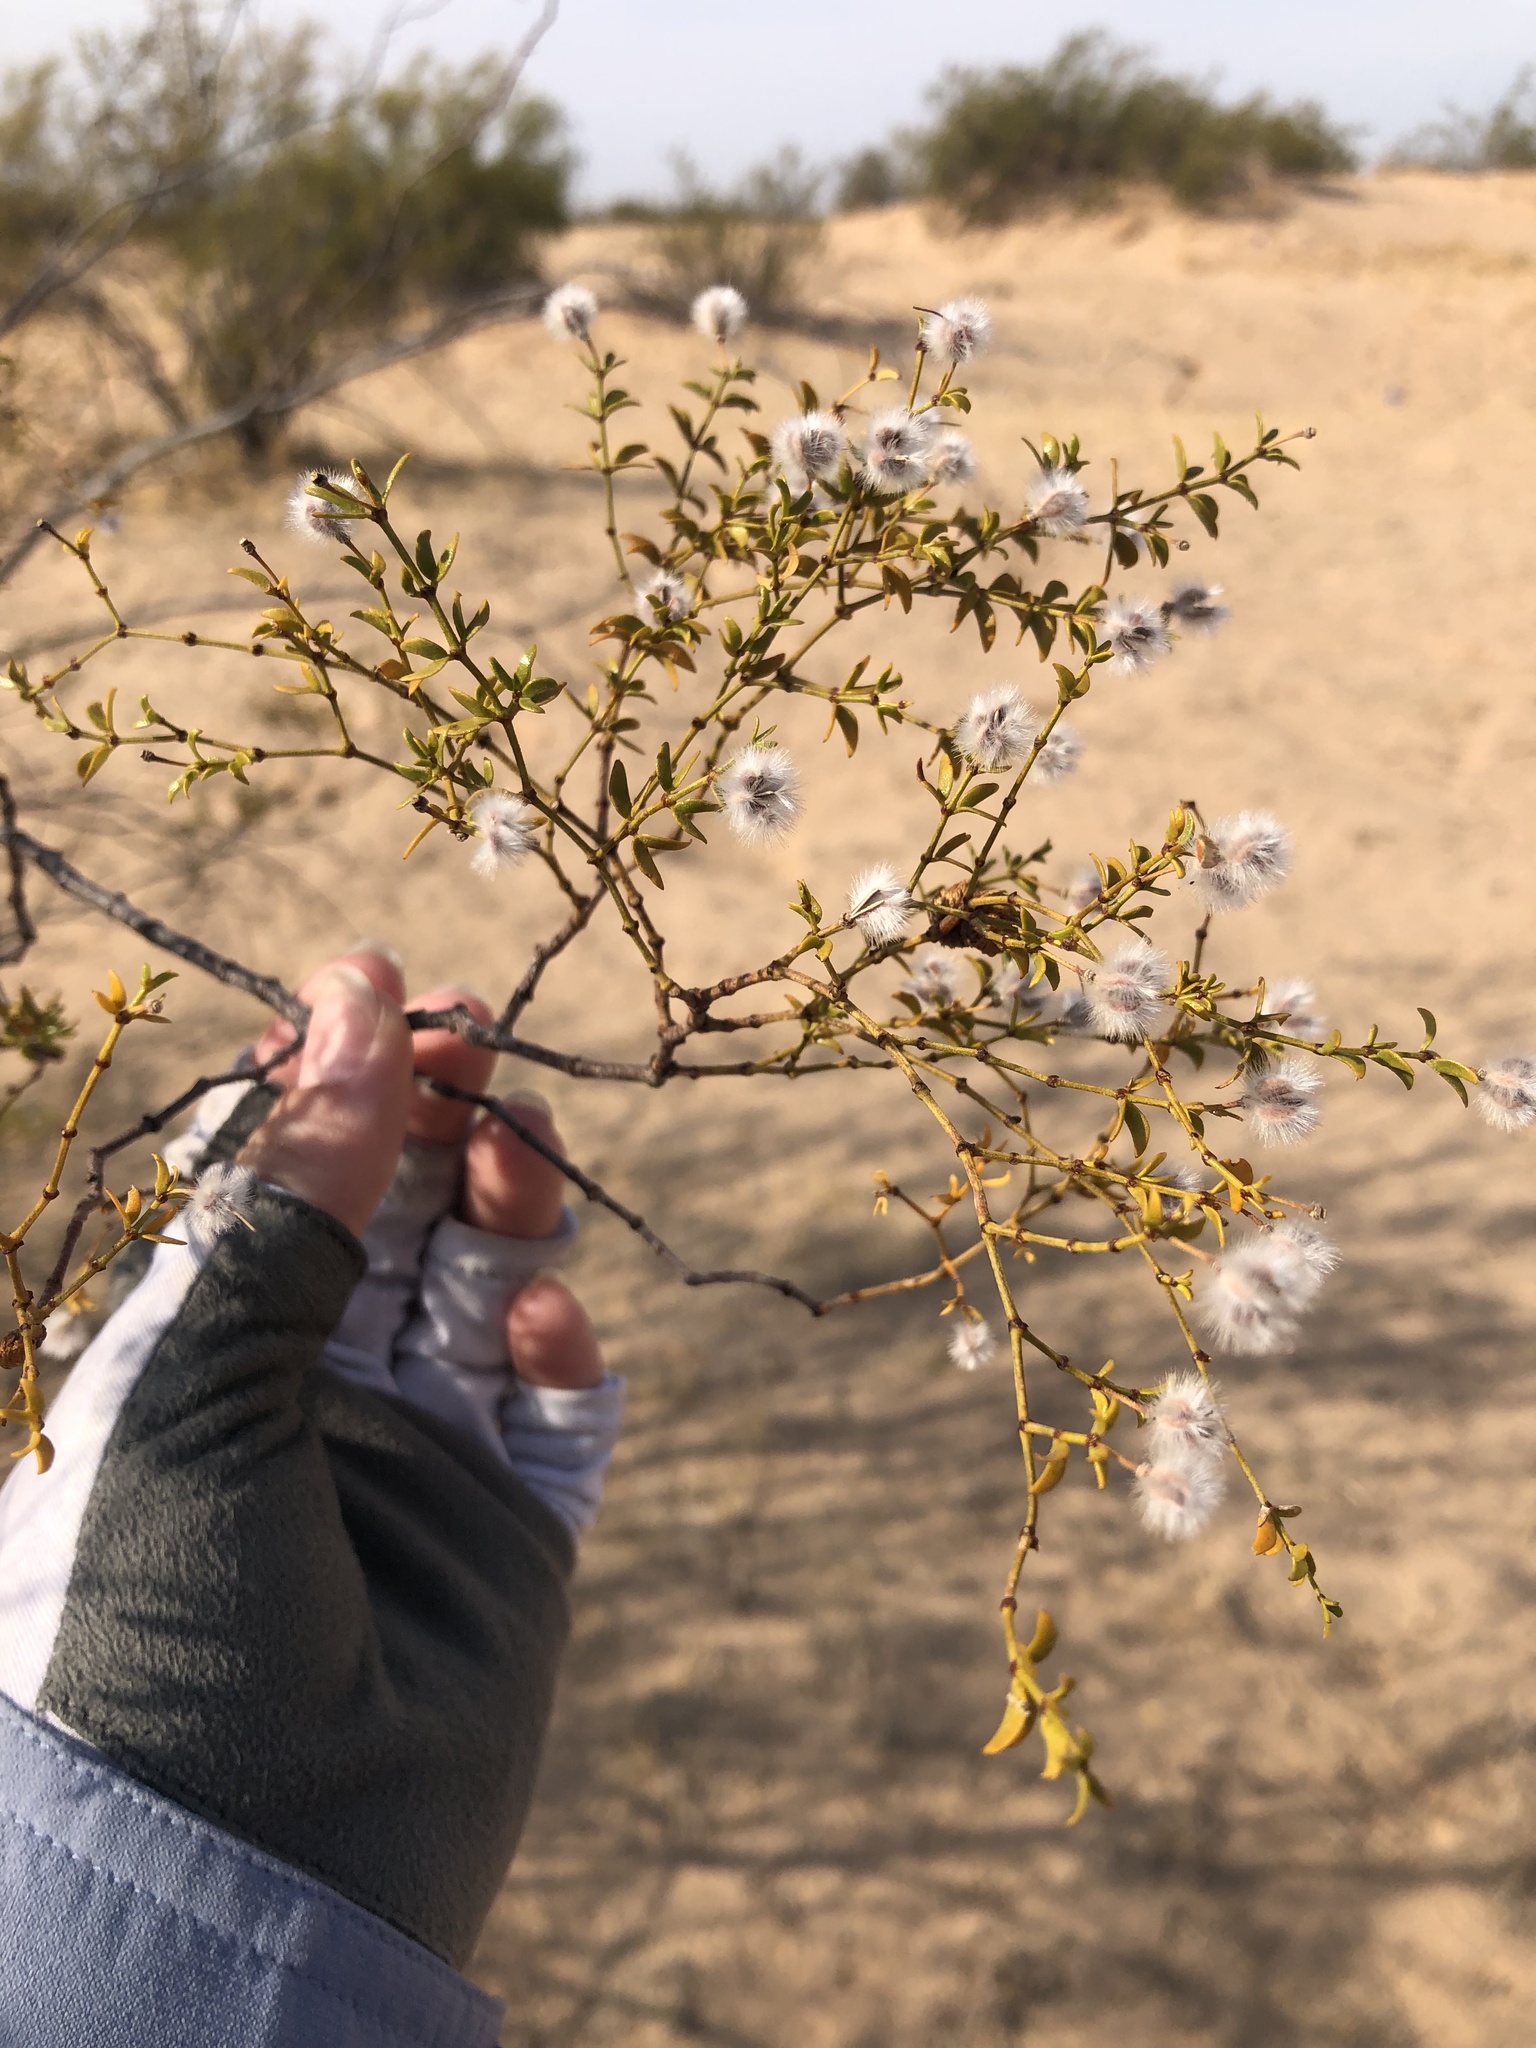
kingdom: Plantae
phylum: Tracheophyta
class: Magnoliopsida
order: Zygophyllales
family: Zygophyllaceae
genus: Larrea
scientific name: Larrea tridentata
